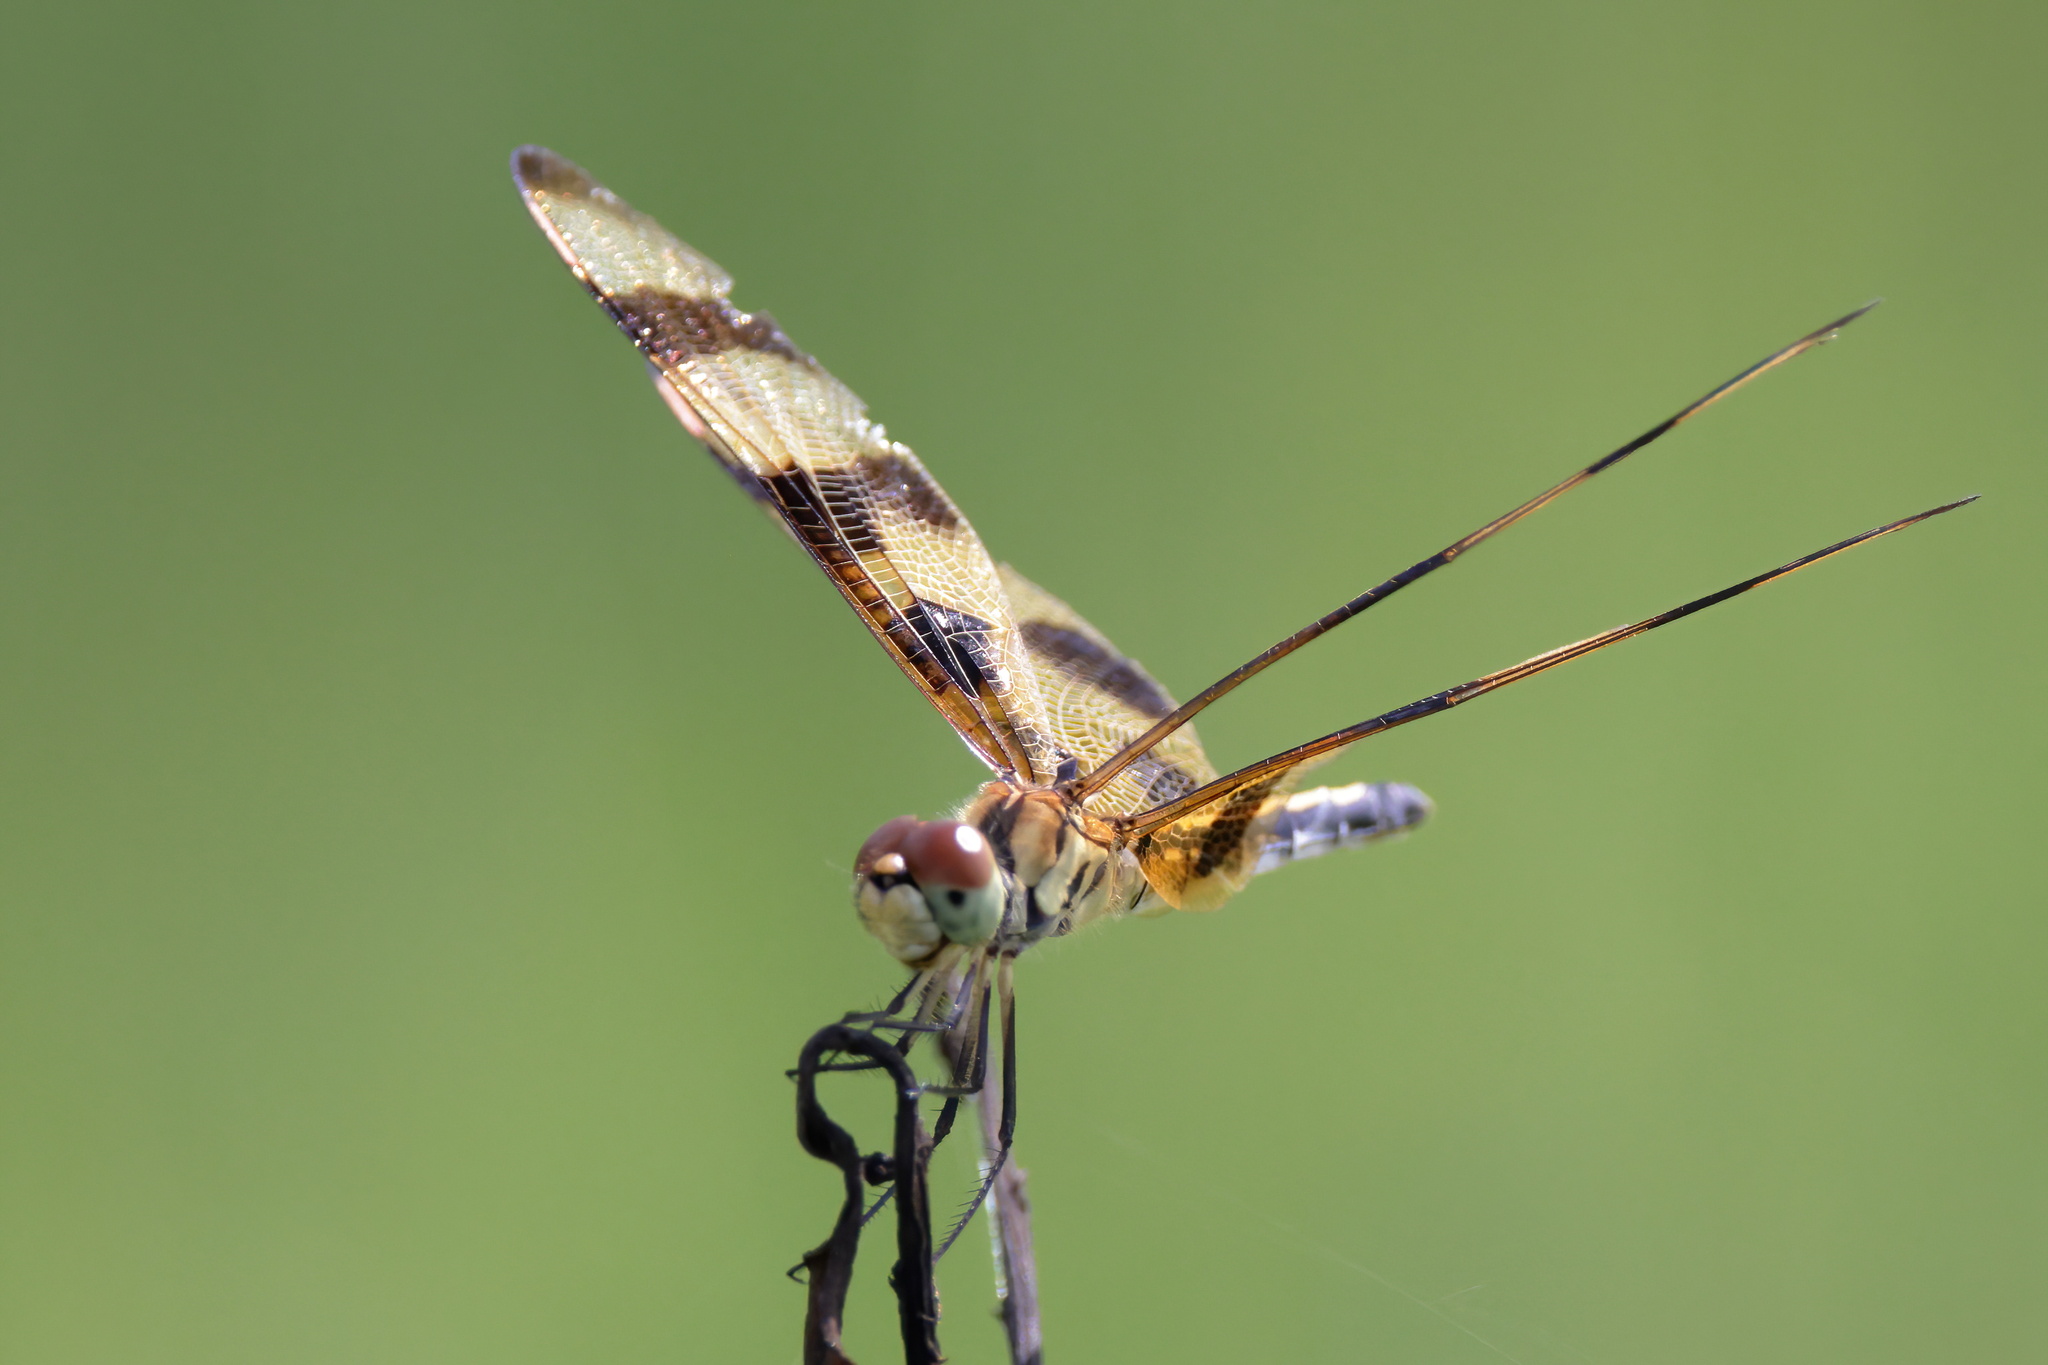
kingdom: Animalia
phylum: Arthropoda
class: Insecta
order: Odonata
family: Libellulidae
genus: Celithemis
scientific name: Celithemis eponina
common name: Halloween pennant
